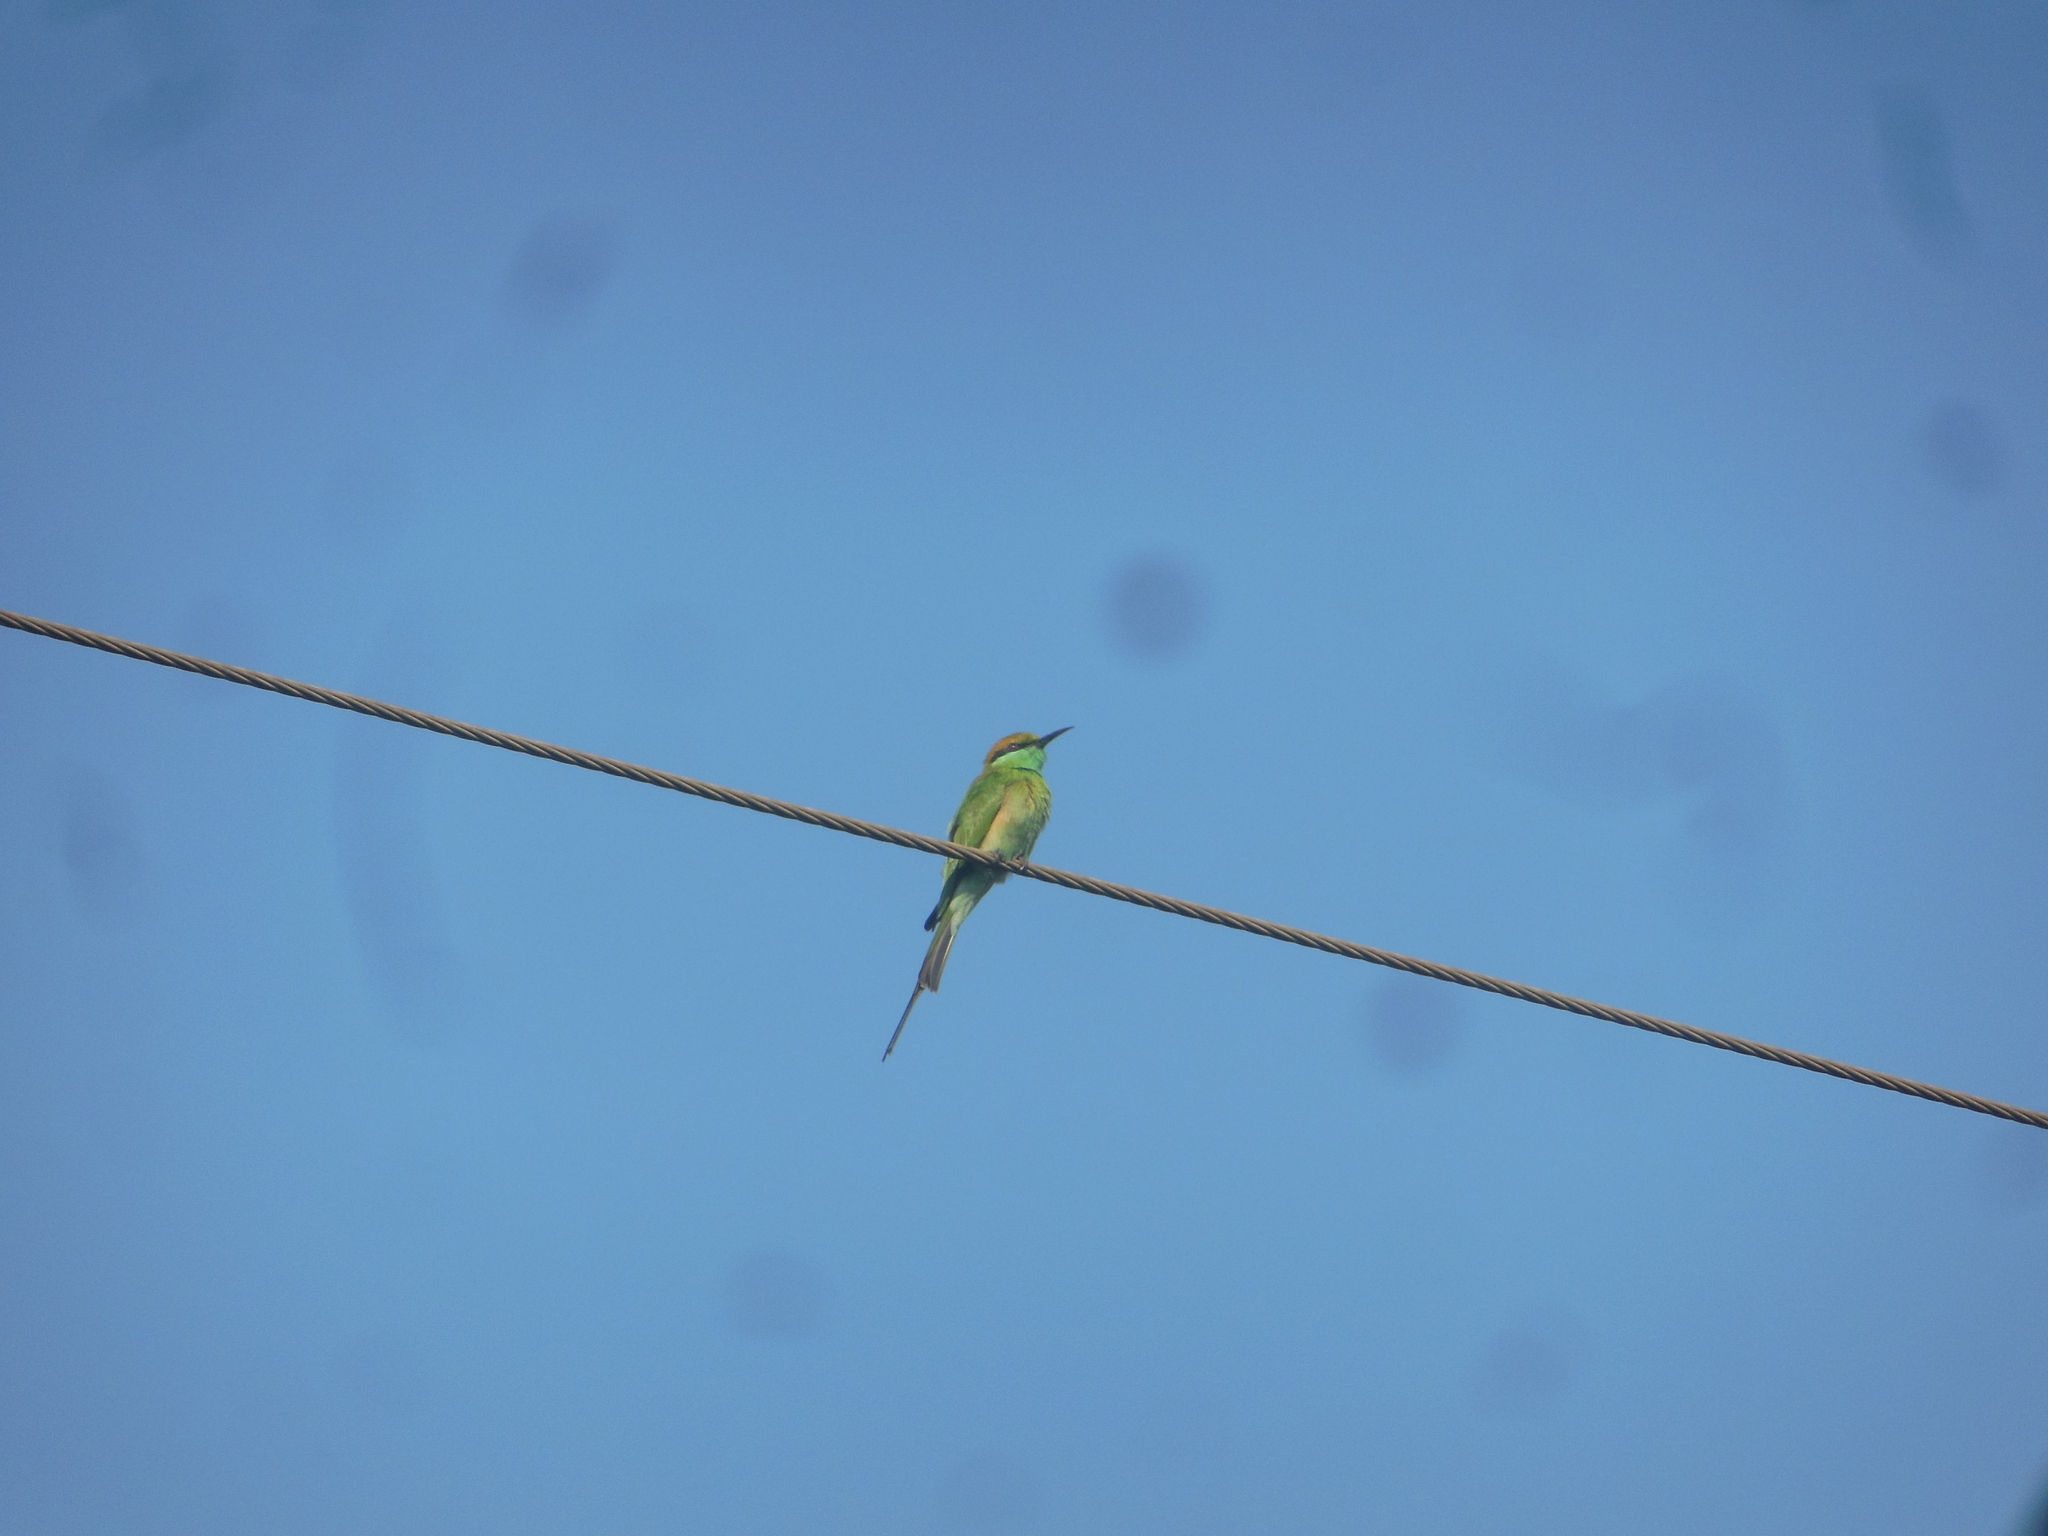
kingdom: Animalia
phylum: Chordata
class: Aves
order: Coraciiformes
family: Meropidae
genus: Merops
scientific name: Merops orientalis
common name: Green bee-eater
